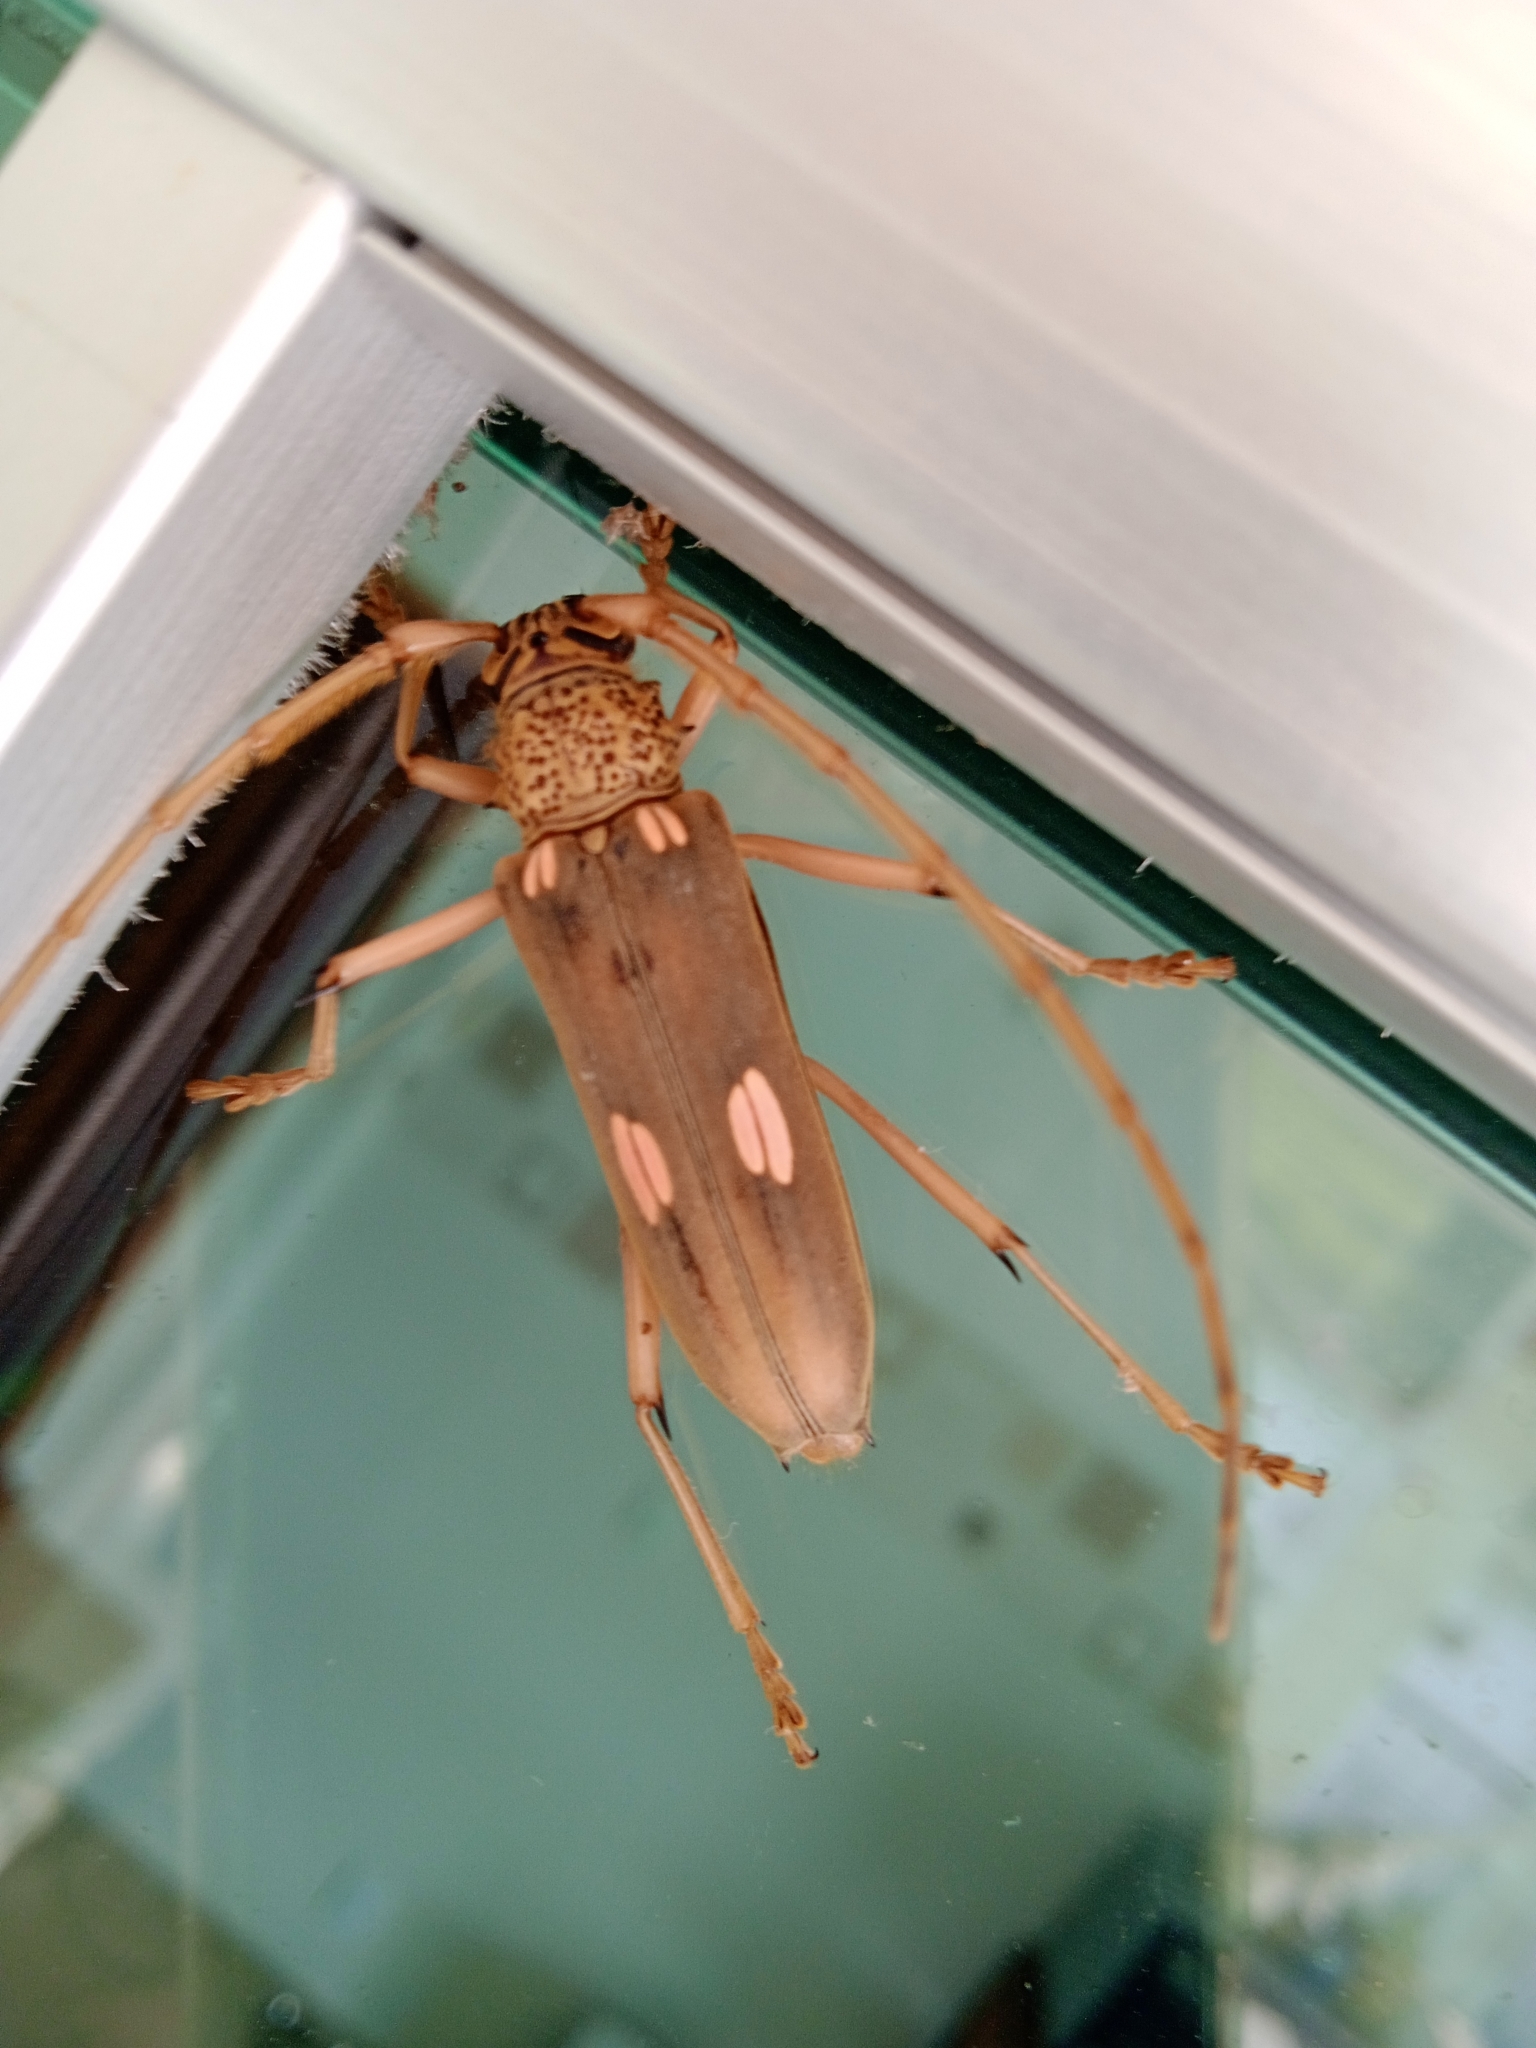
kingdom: Animalia
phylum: Arthropoda
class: Insecta
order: Coleoptera
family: Cerambycidae
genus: Susuacanga
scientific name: Susuacanga octoguttata
